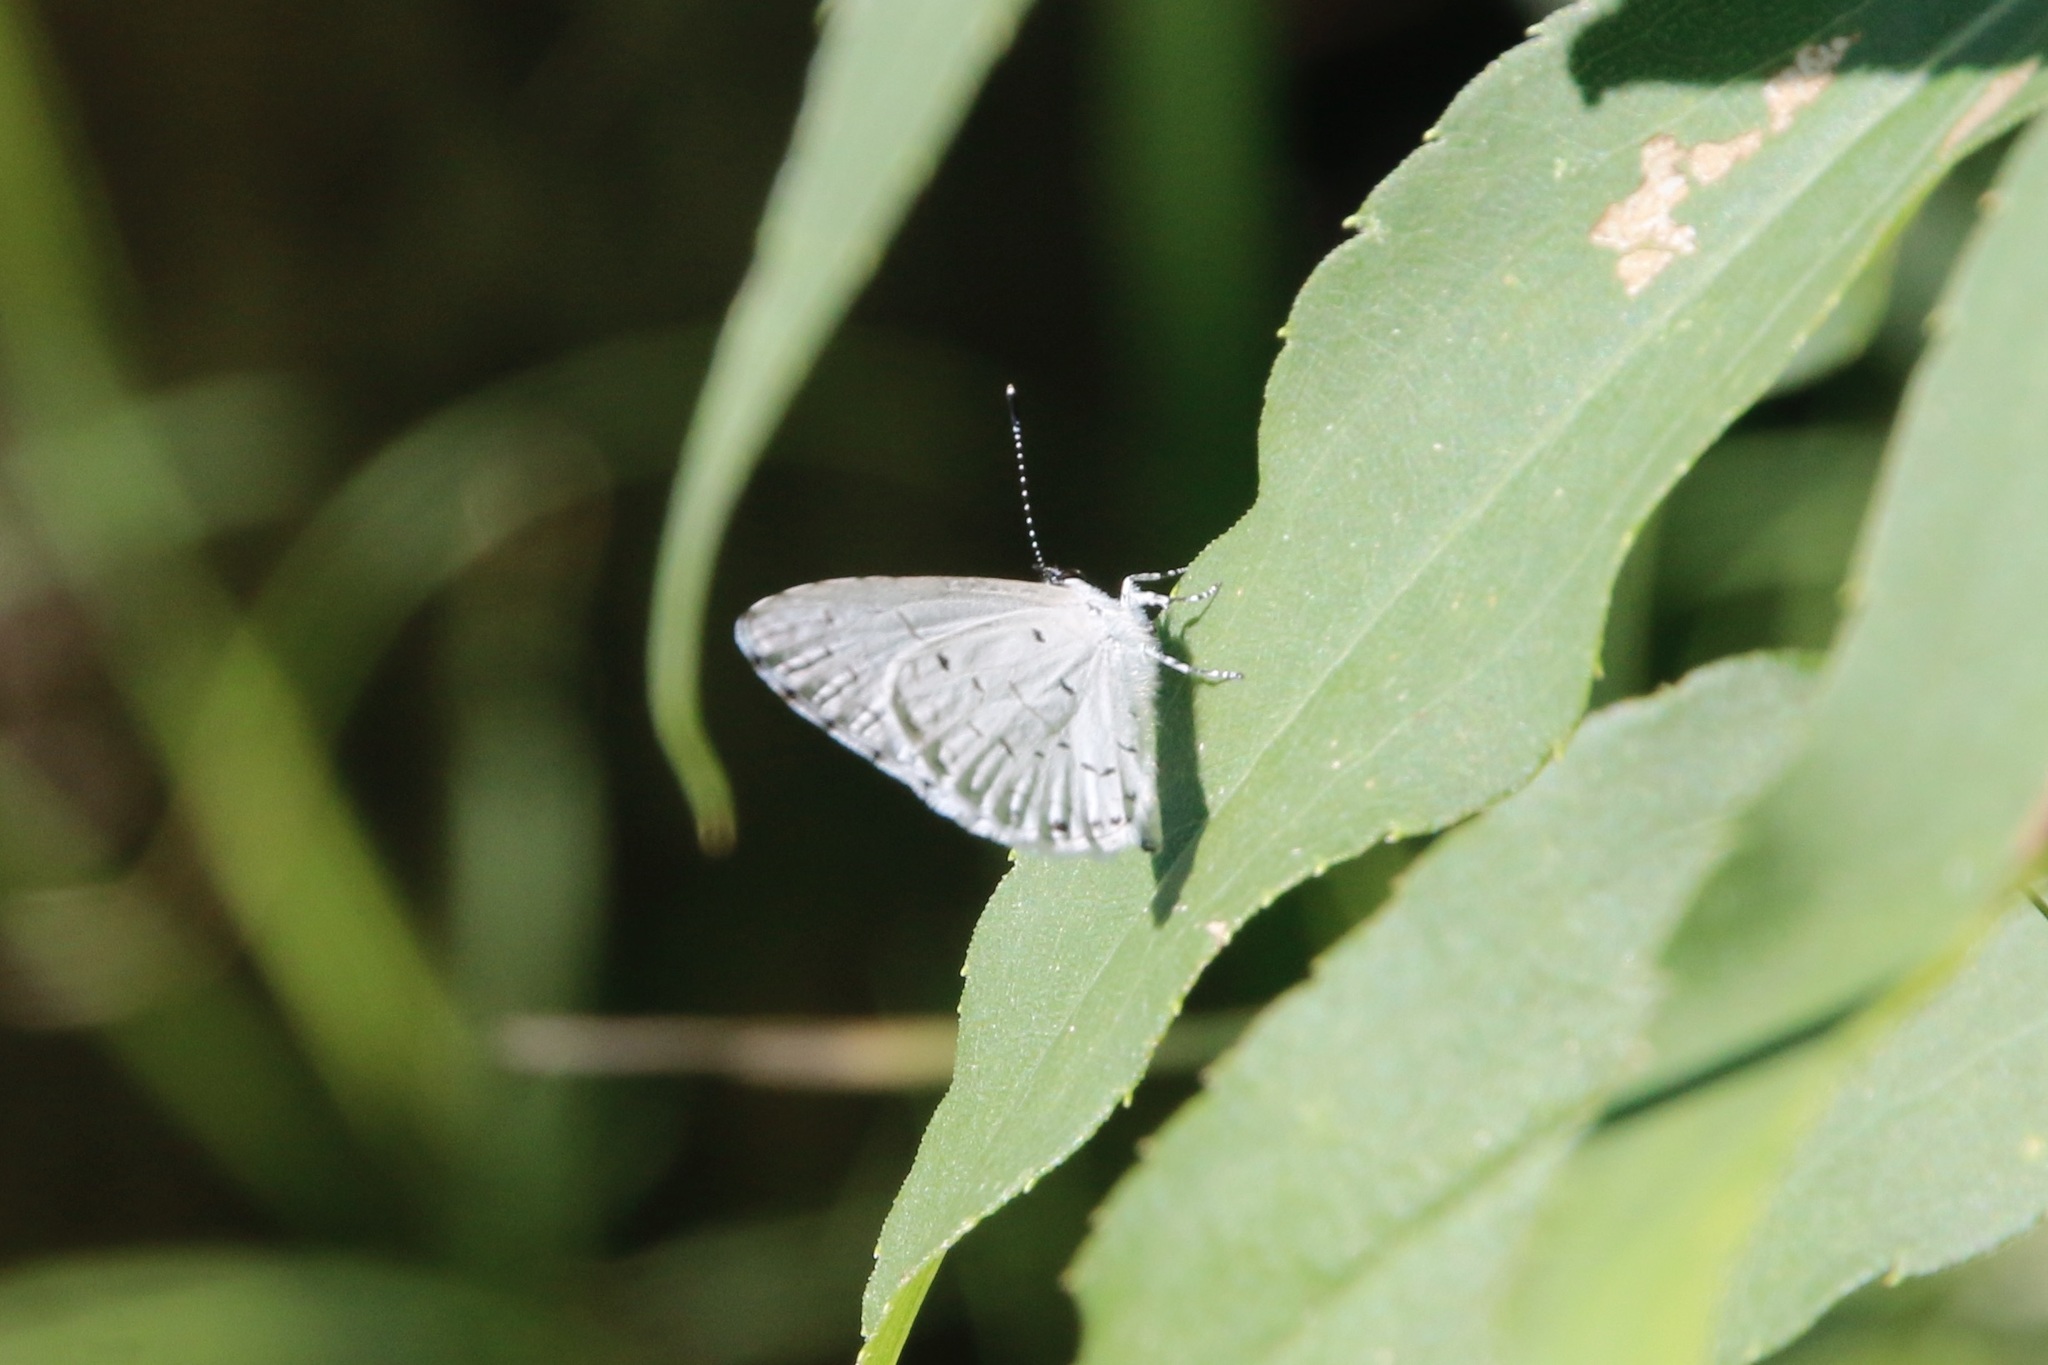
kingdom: Animalia
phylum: Arthropoda
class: Insecta
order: Lepidoptera
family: Lycaenidae
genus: Cyaniris
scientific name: Cyaniris neglecta
